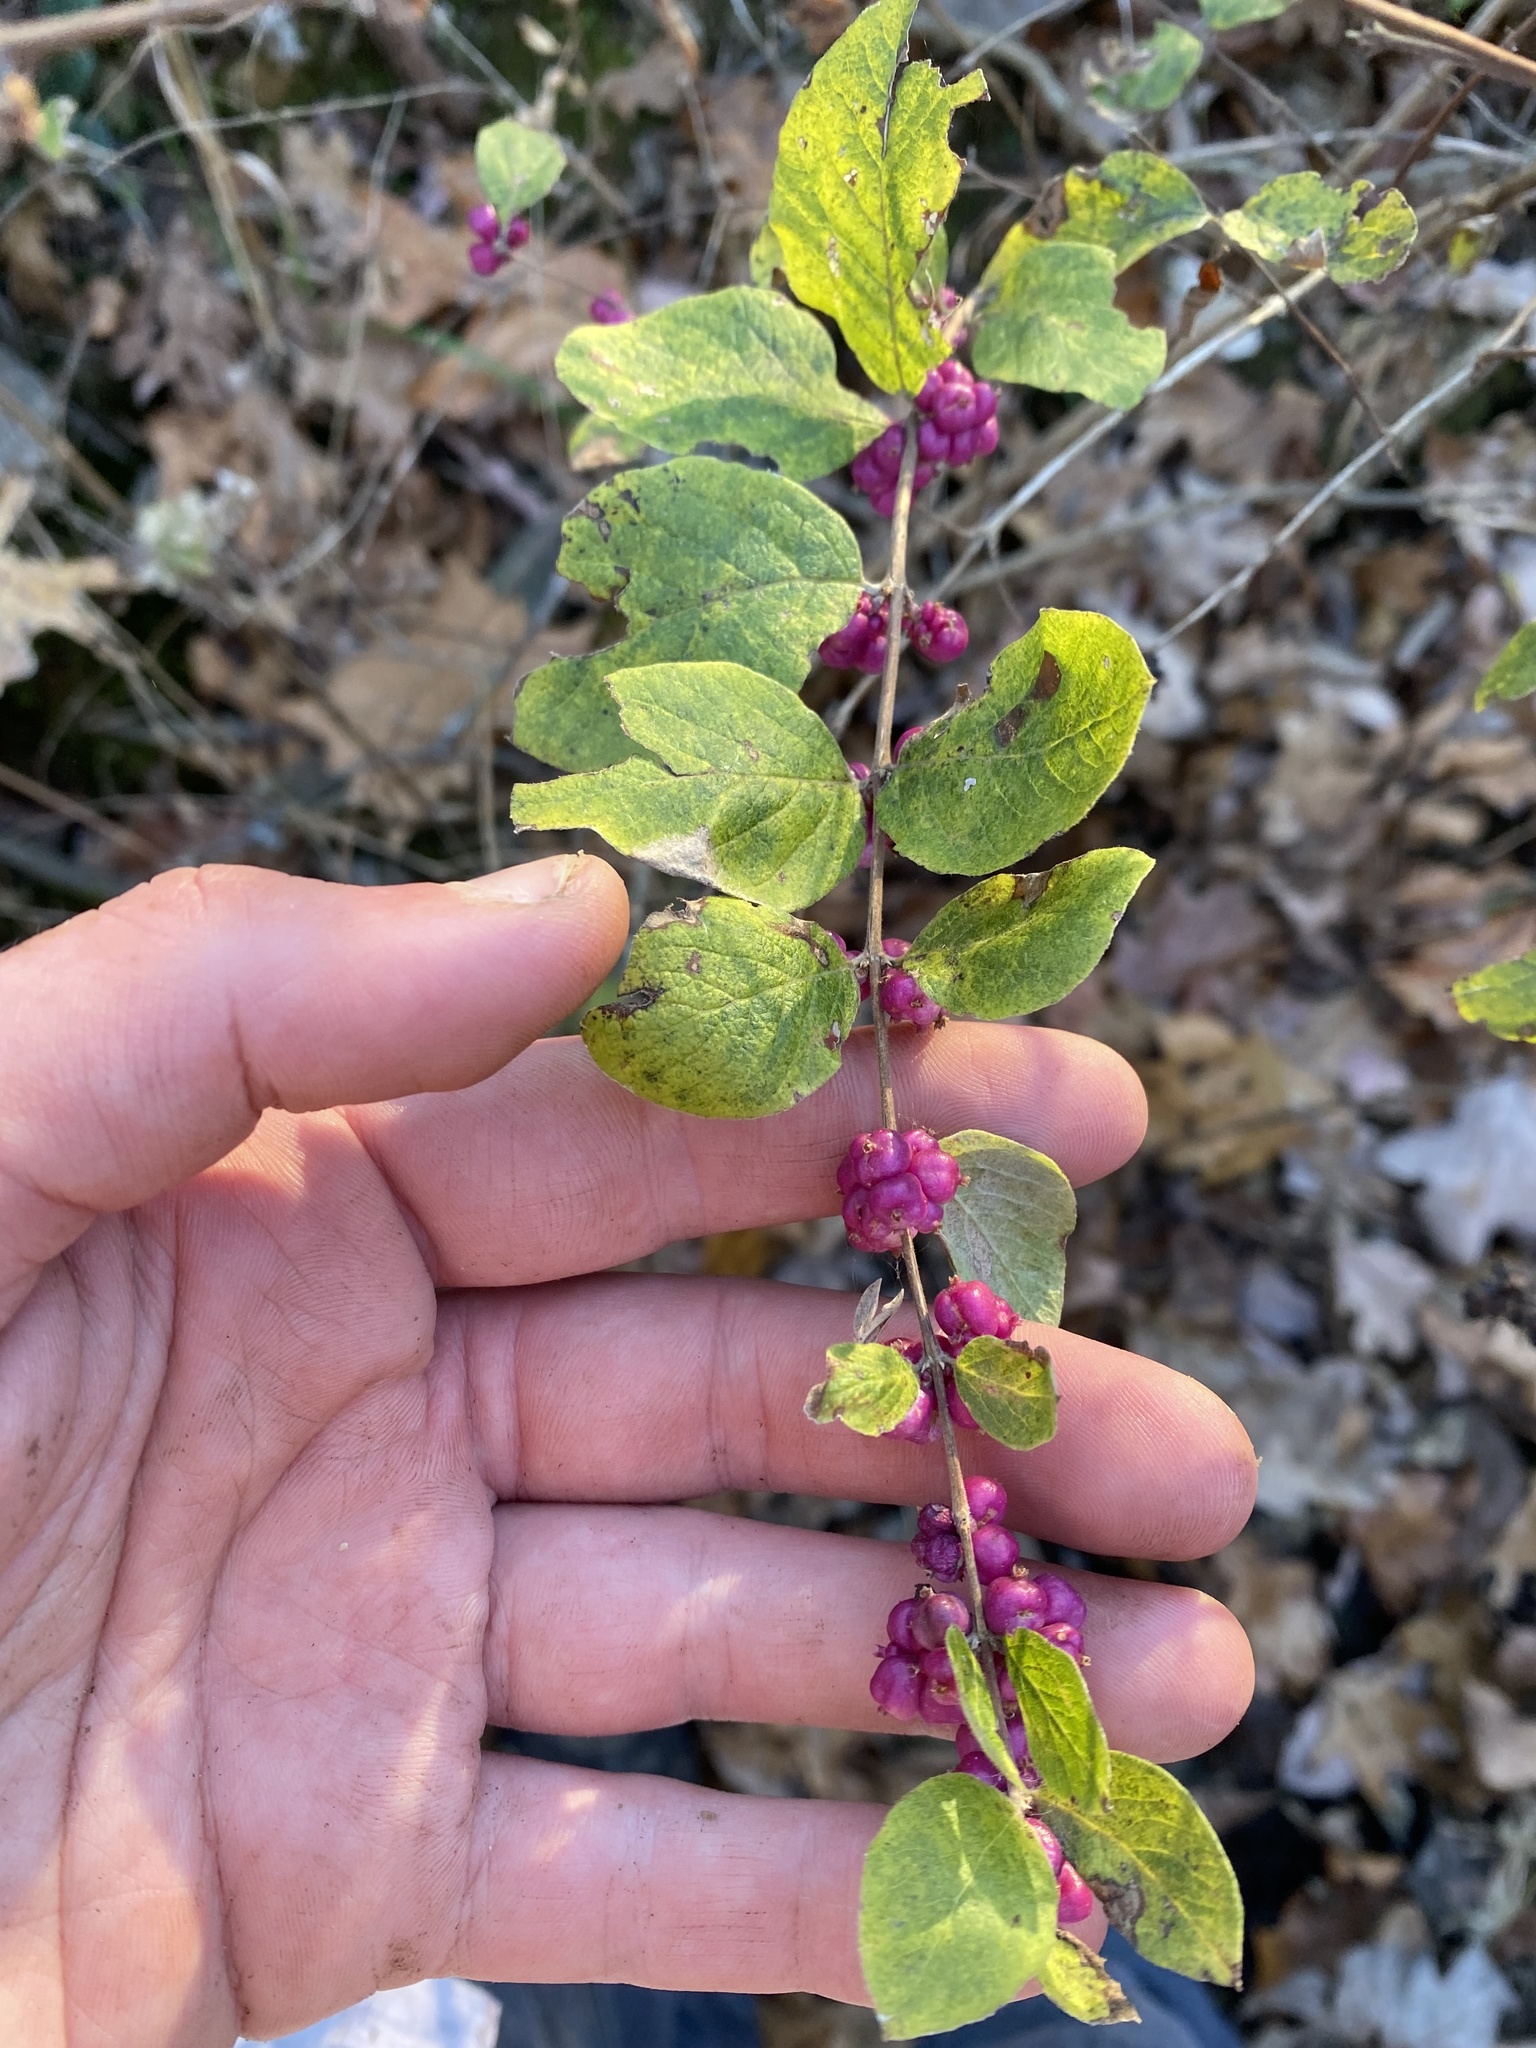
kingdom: Plantae
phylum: Tracheophyta
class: Magnoliopsida
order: Dipsacales
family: Caprifoliaceae
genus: Symphoricarpos
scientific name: Symphoricarpos orbiculatus
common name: Coralberry
